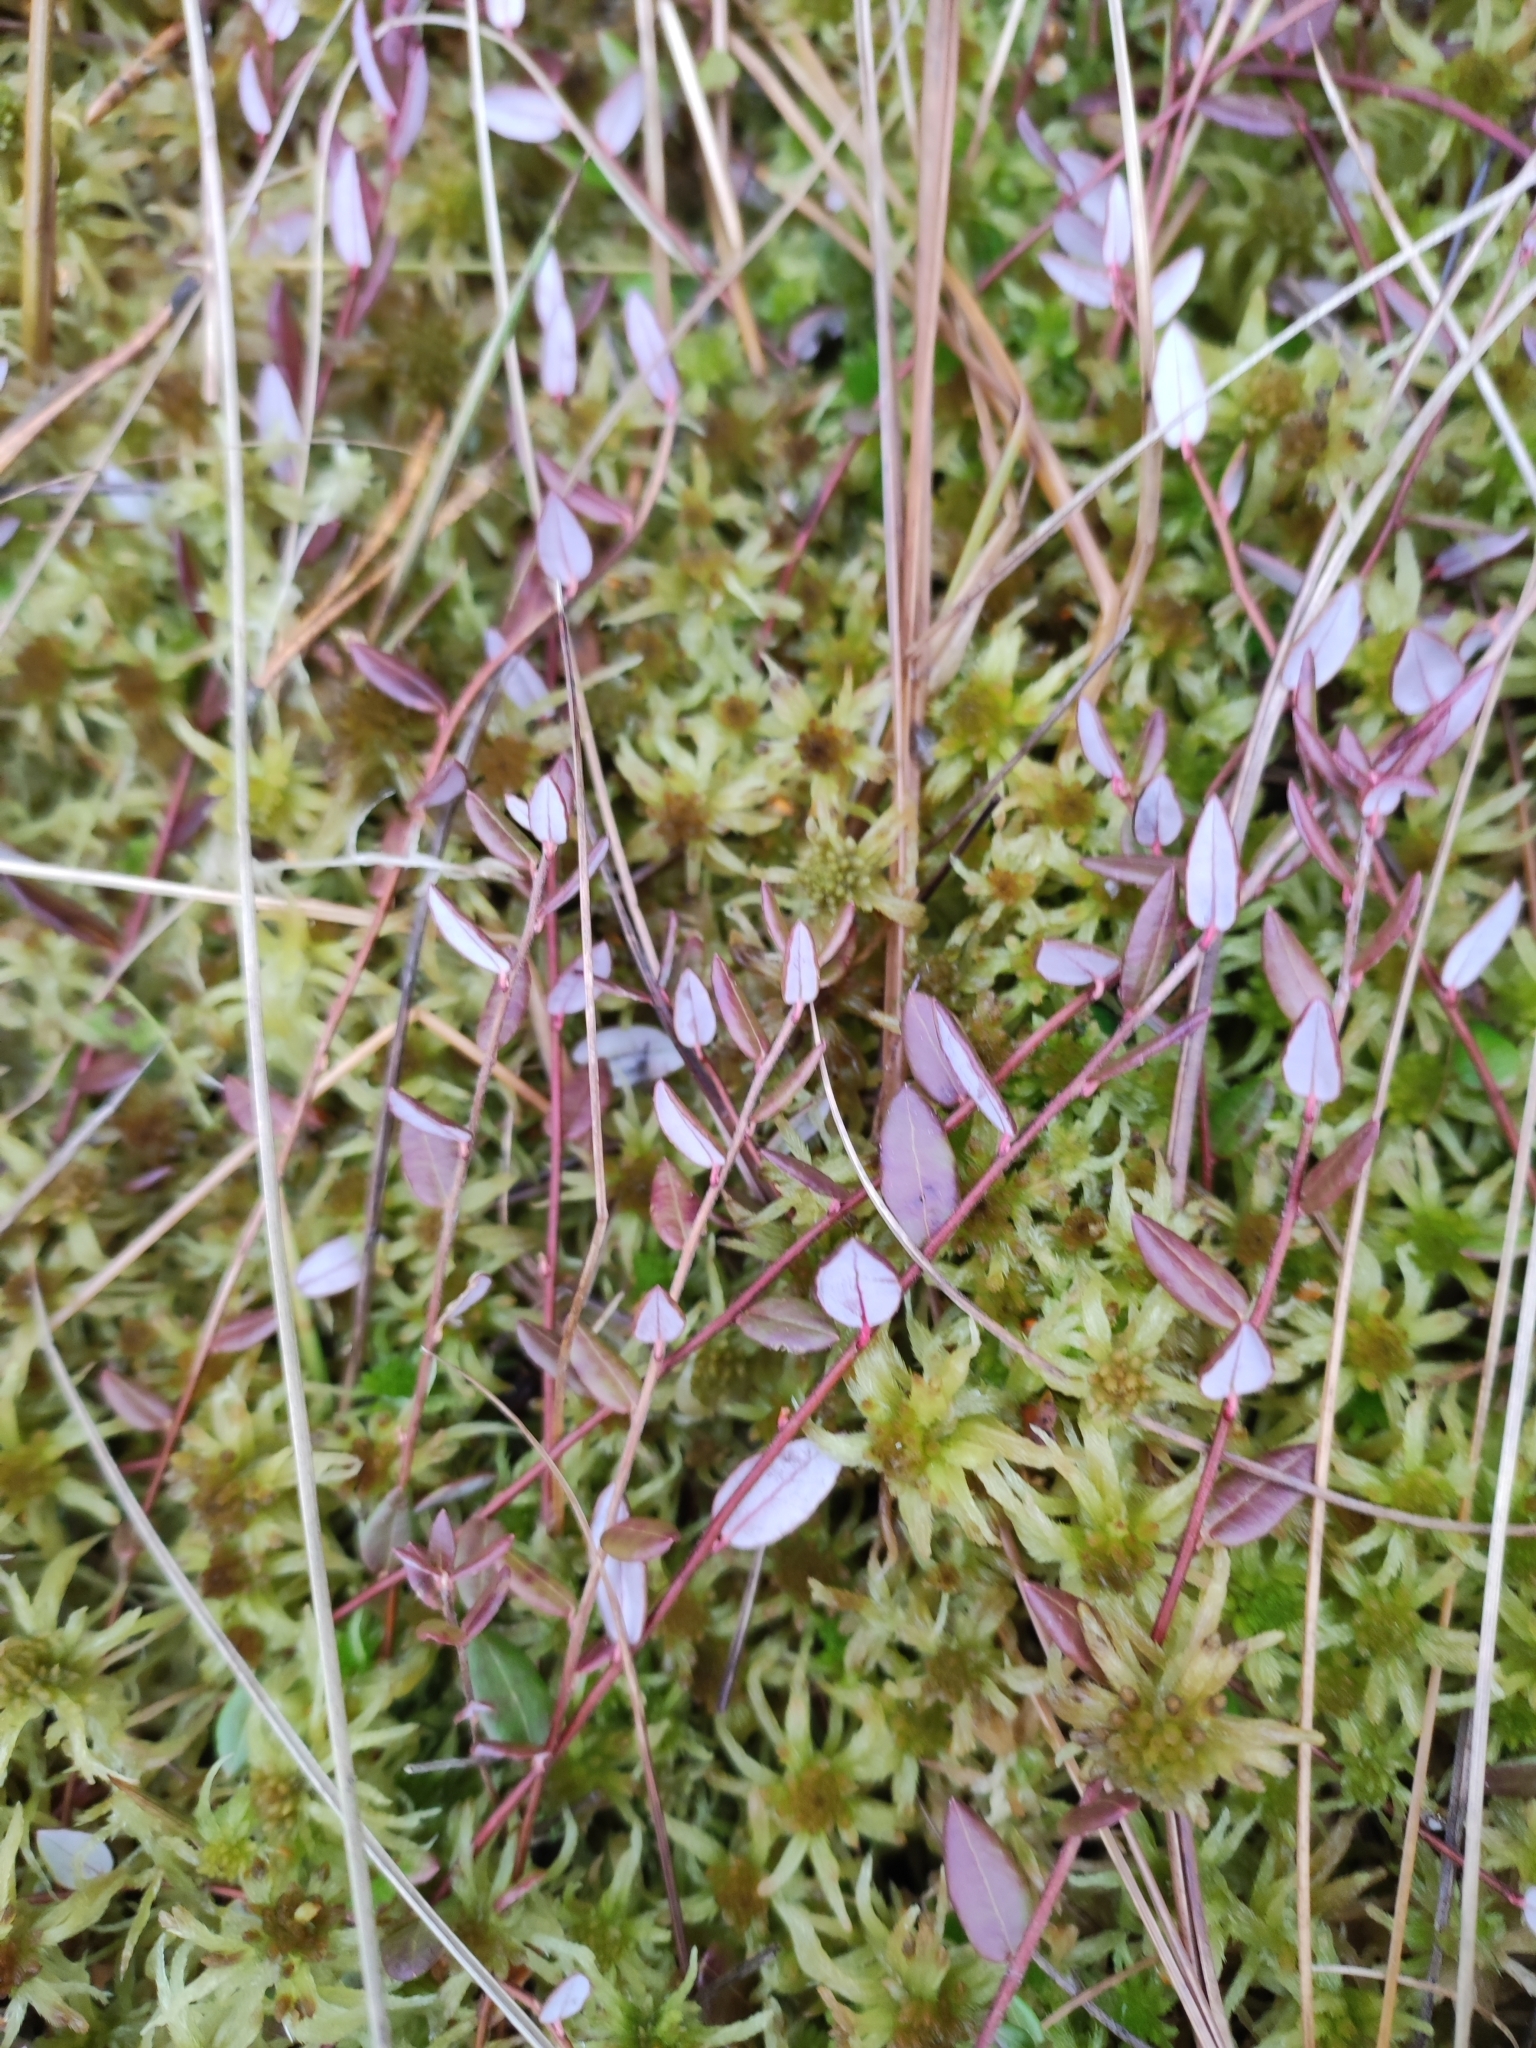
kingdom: Plantae
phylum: Tracheophyta
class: Magnoliopsida
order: Ericales
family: Ericaceae
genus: Vaccinium
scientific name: Vaccinium oxycoccos
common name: Cranberry
